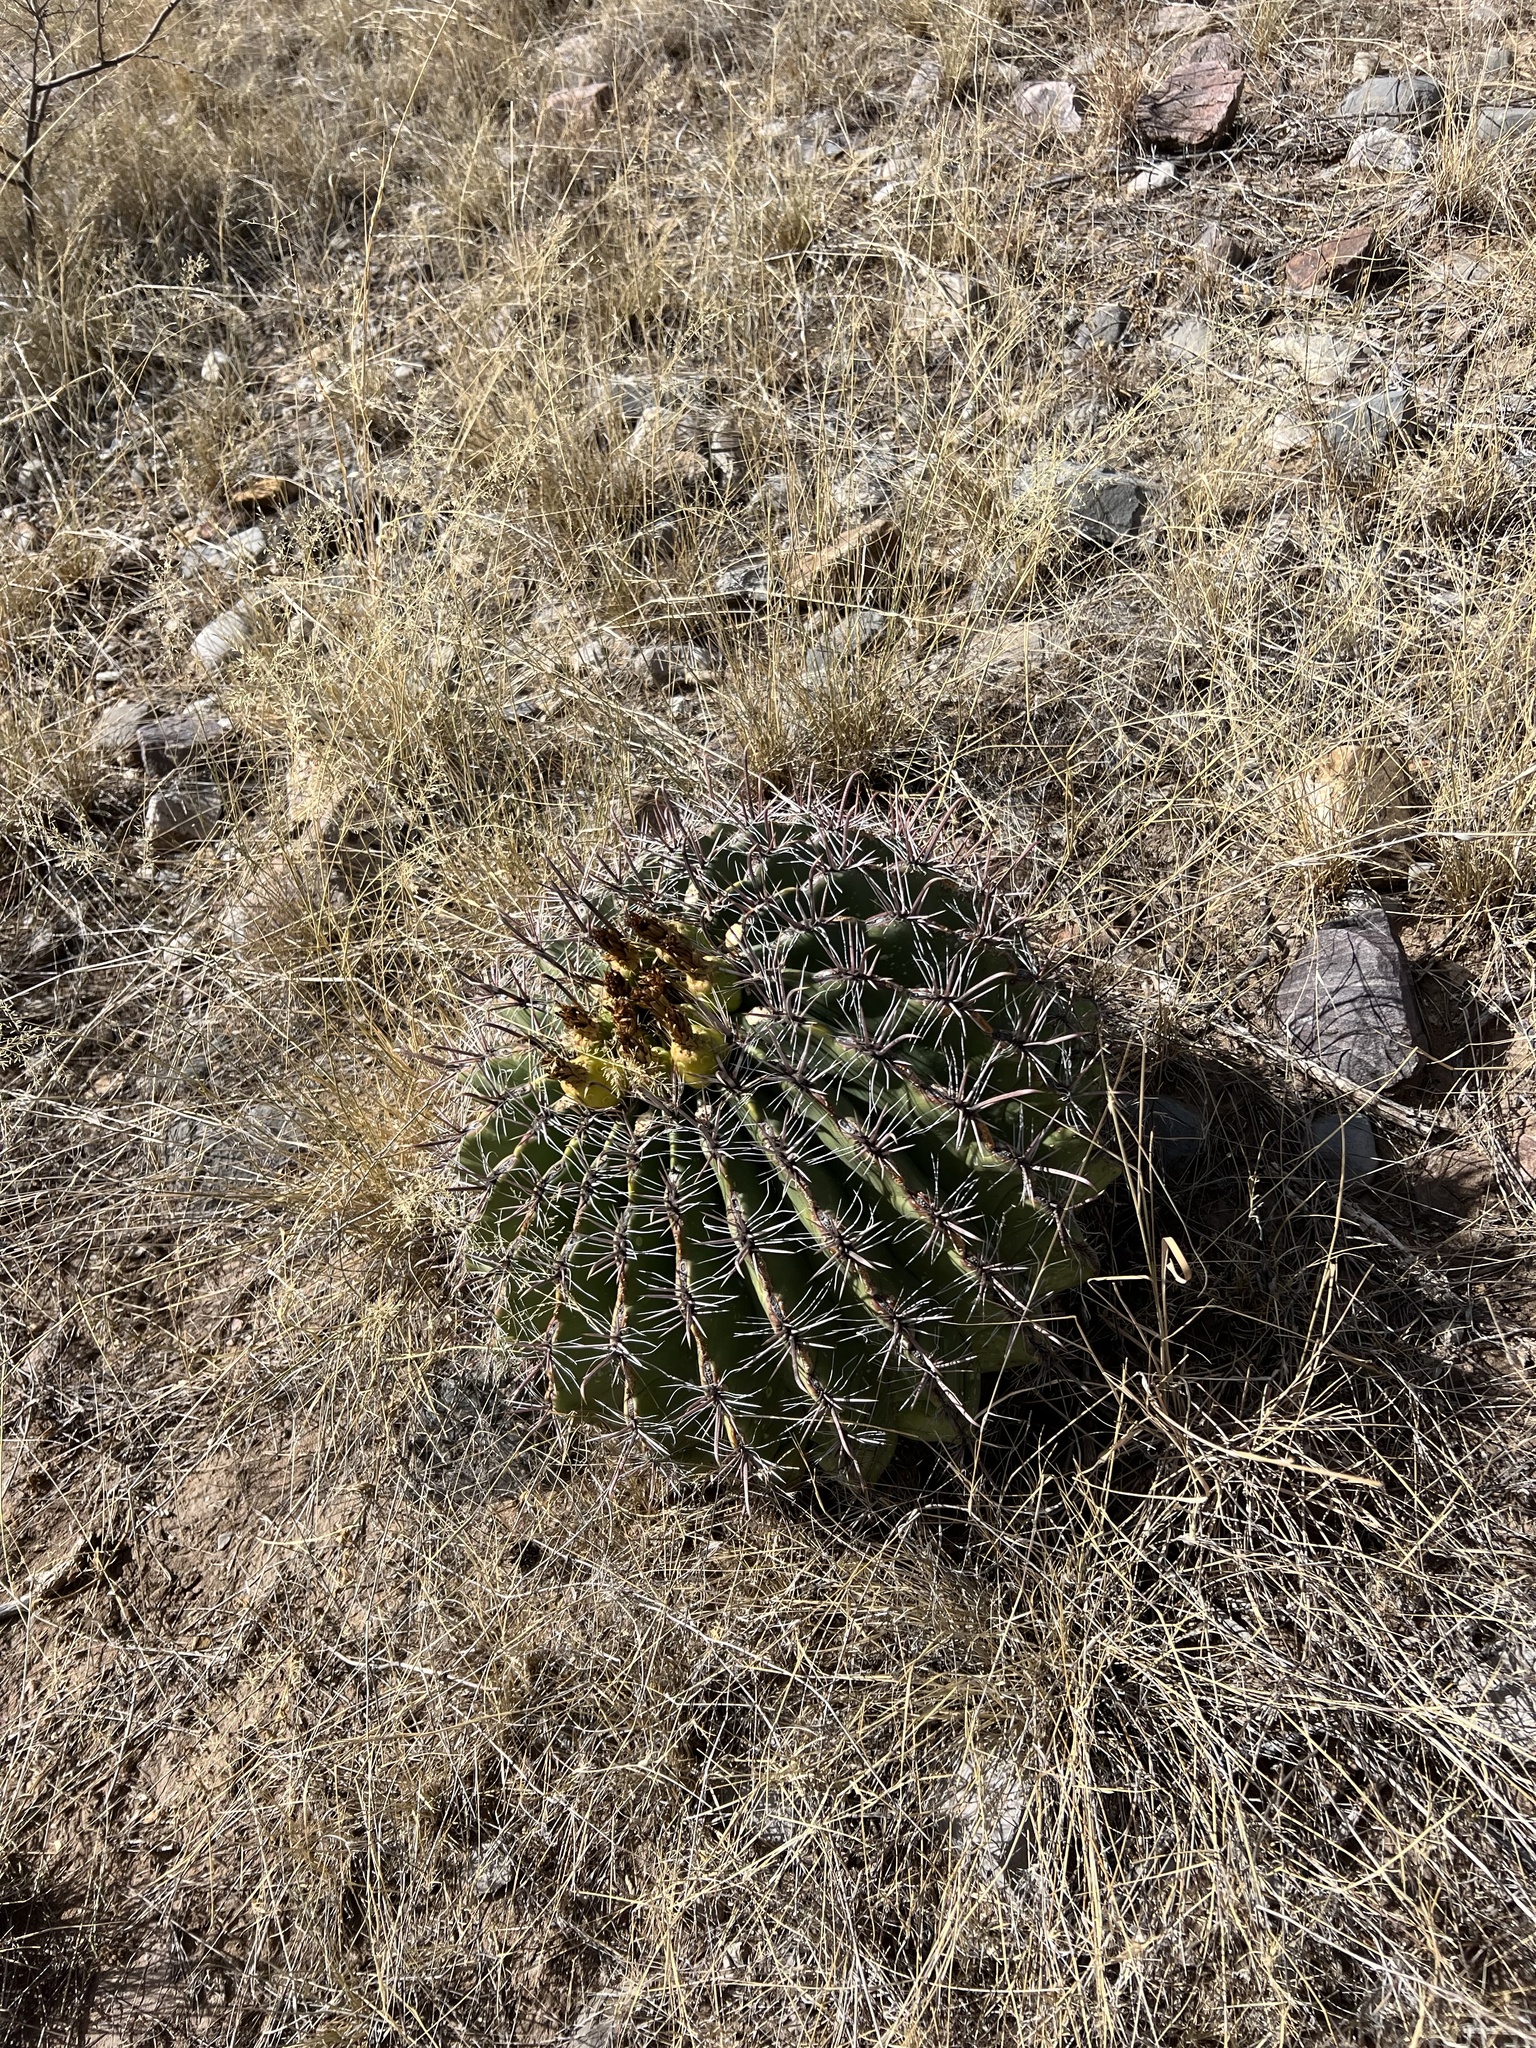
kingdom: Plantae
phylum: Tracheophyta
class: Magnoliopsida
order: Caryophyllales
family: Cactaceae
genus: Ferocactus
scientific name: Ferocactus wislizeni
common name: Candy barrel cactus
